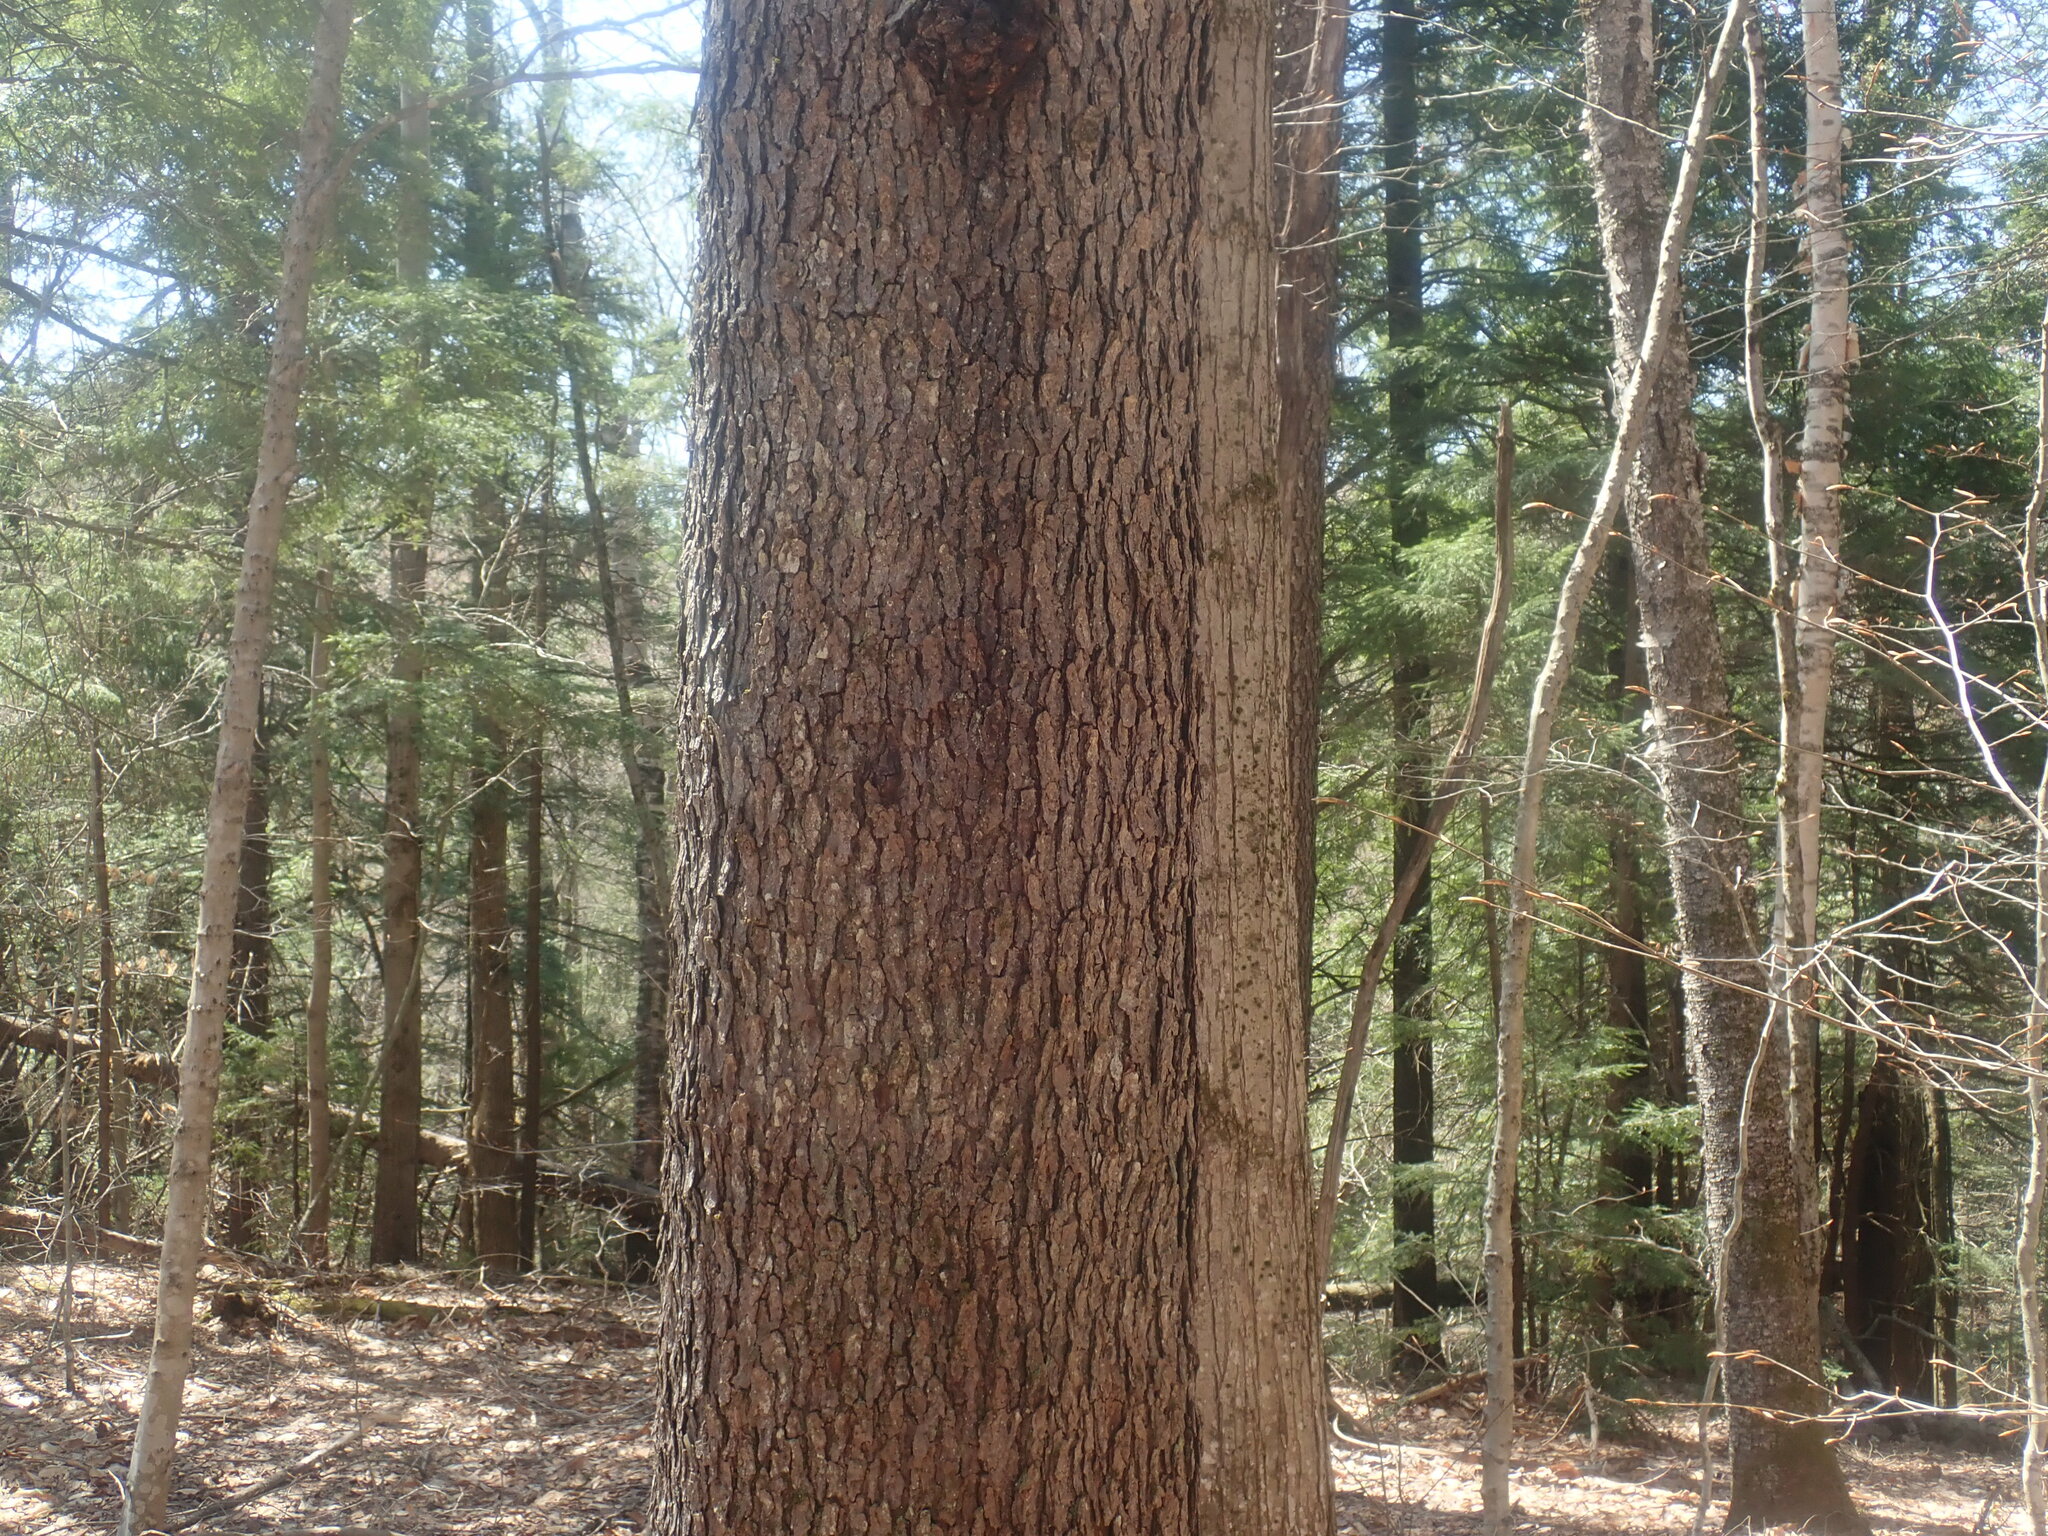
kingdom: Plantae
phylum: Tracheophyta
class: Magnoliopsida
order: Rosales
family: Rosaceae
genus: Prunus
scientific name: Prunus serotina
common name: Black cherry
